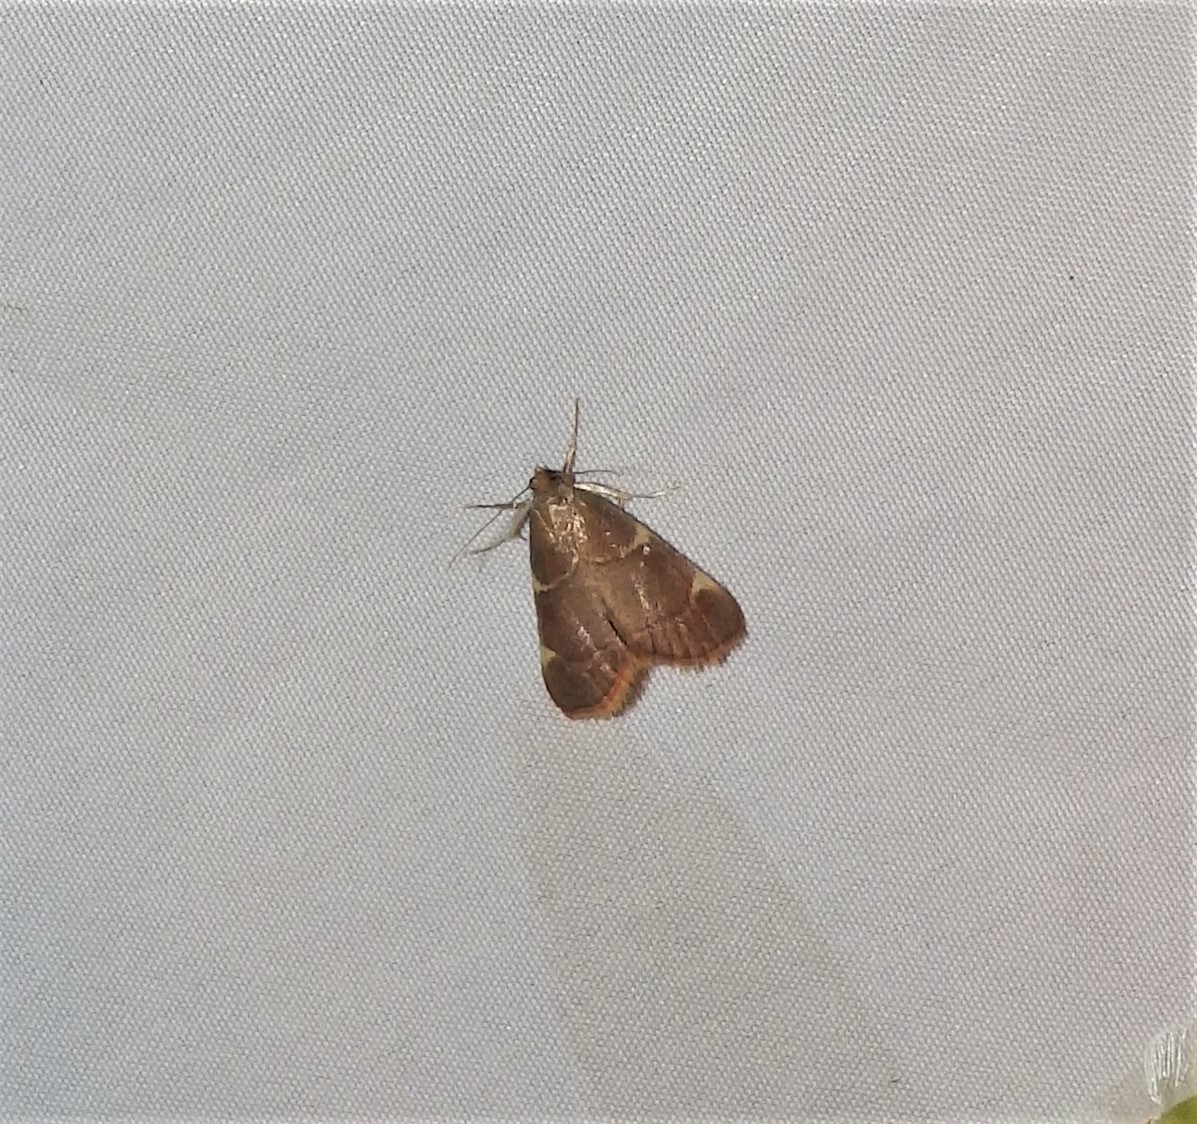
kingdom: Animalia
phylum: Arthropoda
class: Insecta
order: Lepidoptera
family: Pyralidae
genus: Hypsopygia
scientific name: Hypsopygia olinalis
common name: Yellow-fringed dolichomia moth
